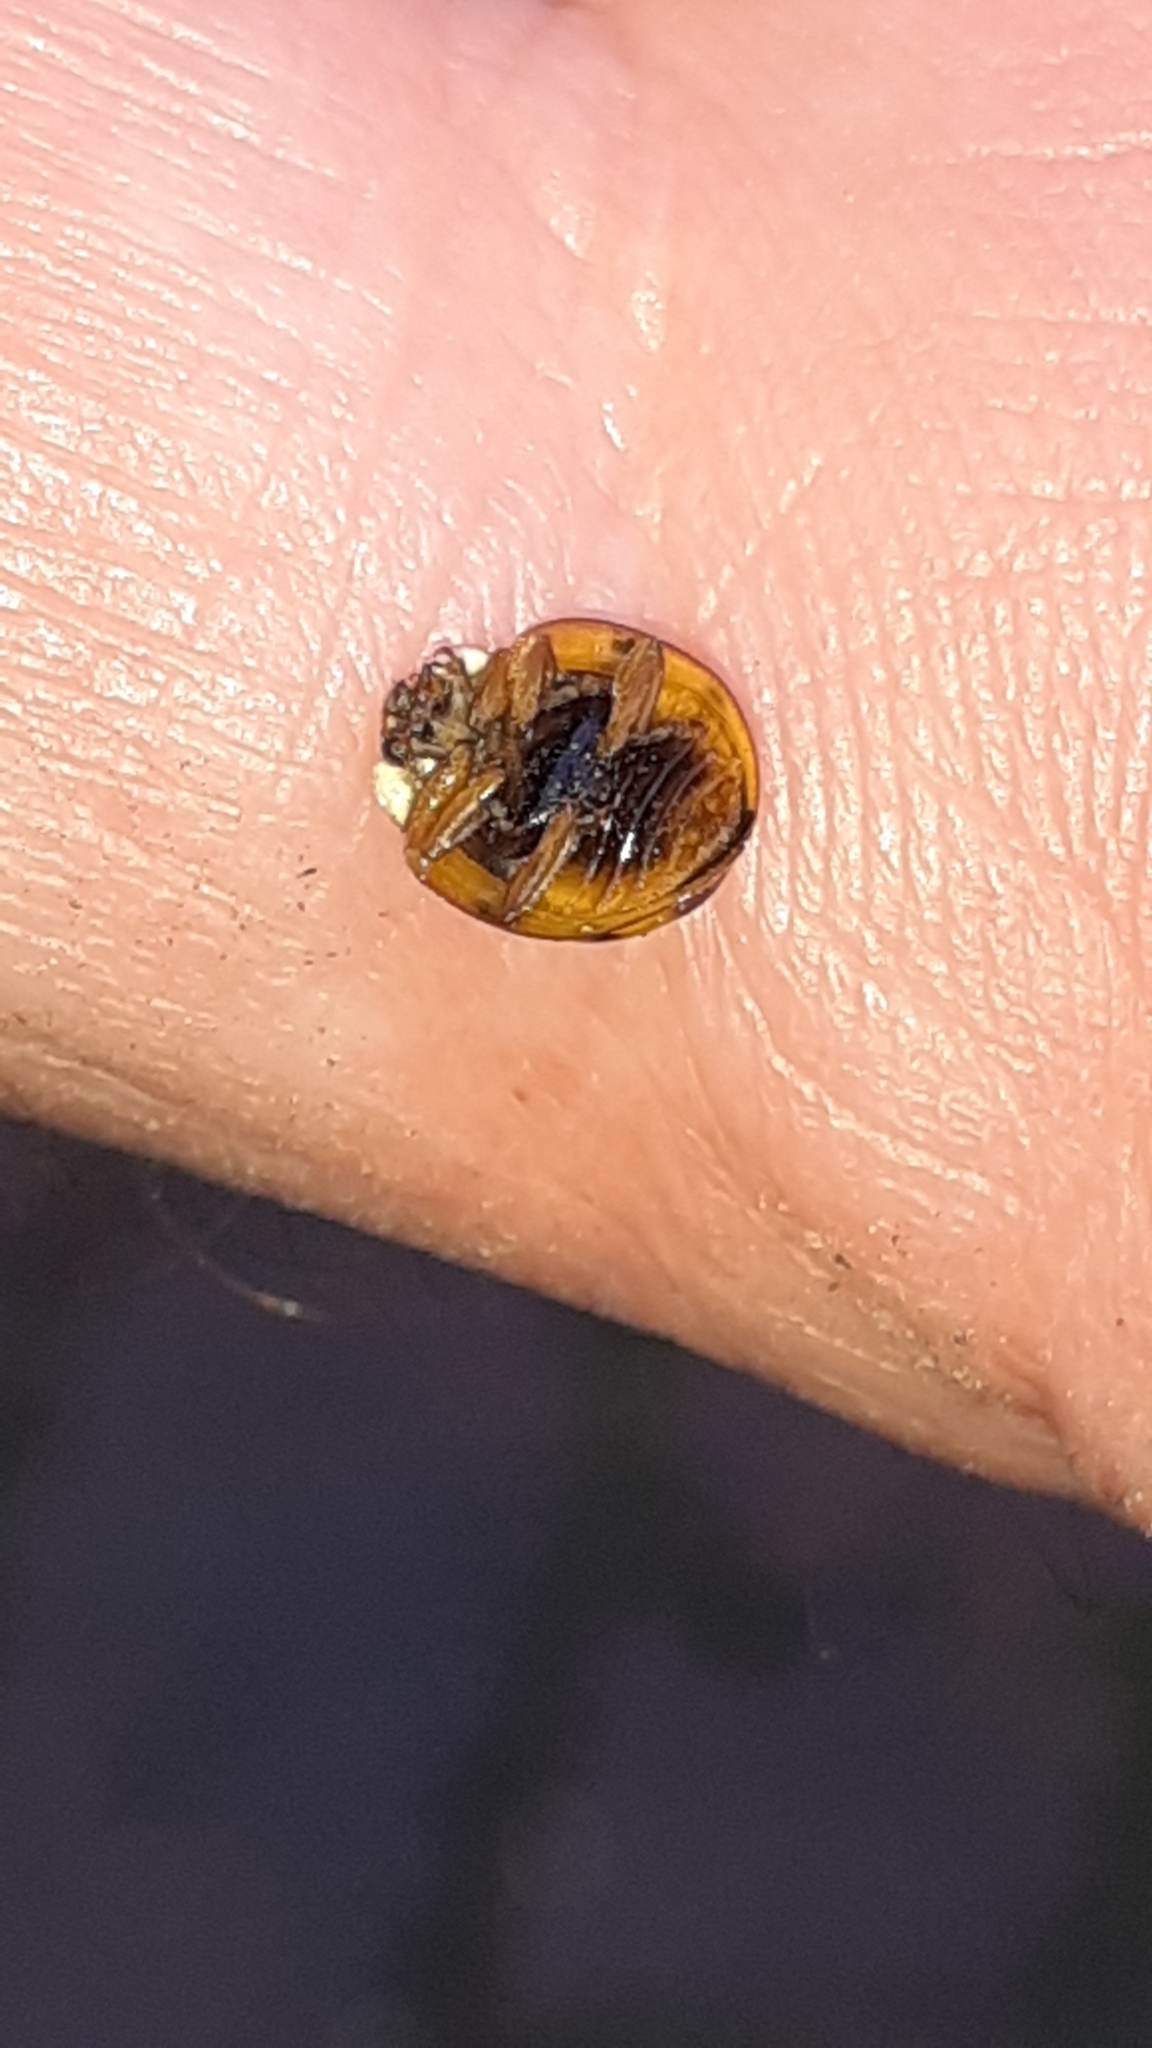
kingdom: Animalia
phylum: Arthropoda
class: Insecta
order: Coleoptera
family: Coccinellidae
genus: Harmonia
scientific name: Harmonia axyridis
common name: Harlequin ladybird
